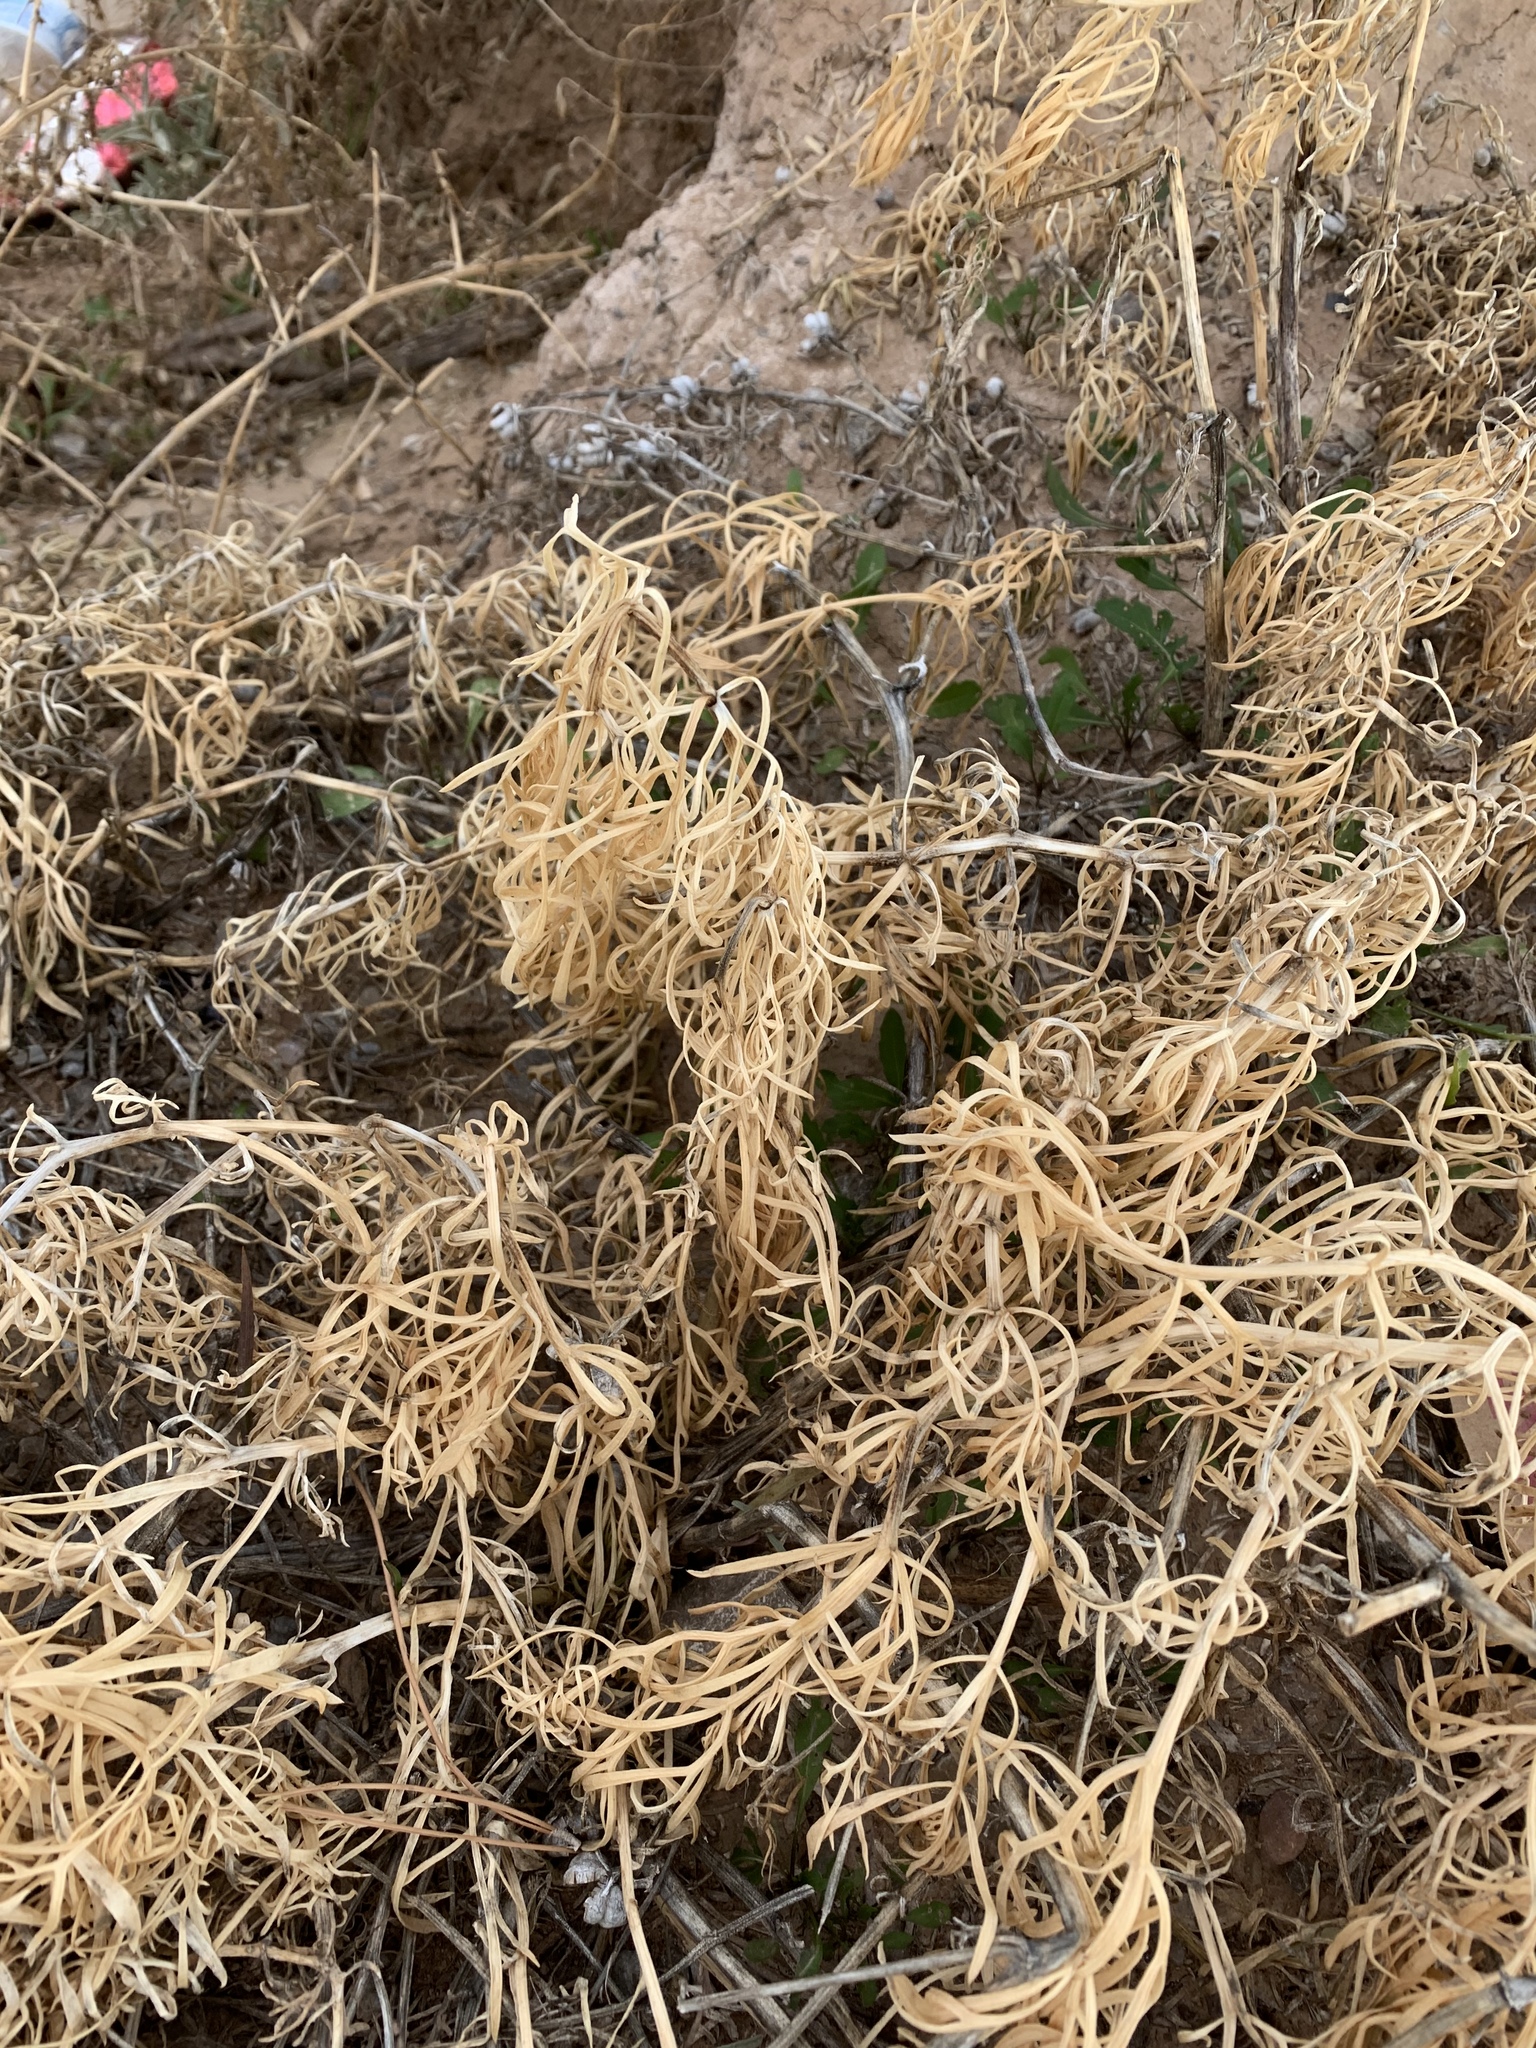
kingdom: Plantae
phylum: Tracheophyta
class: Magnoliopsida
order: Sapindales
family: Tetradiclidaceae
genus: Peganum
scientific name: Peganum harmala
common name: Harmal peganum
